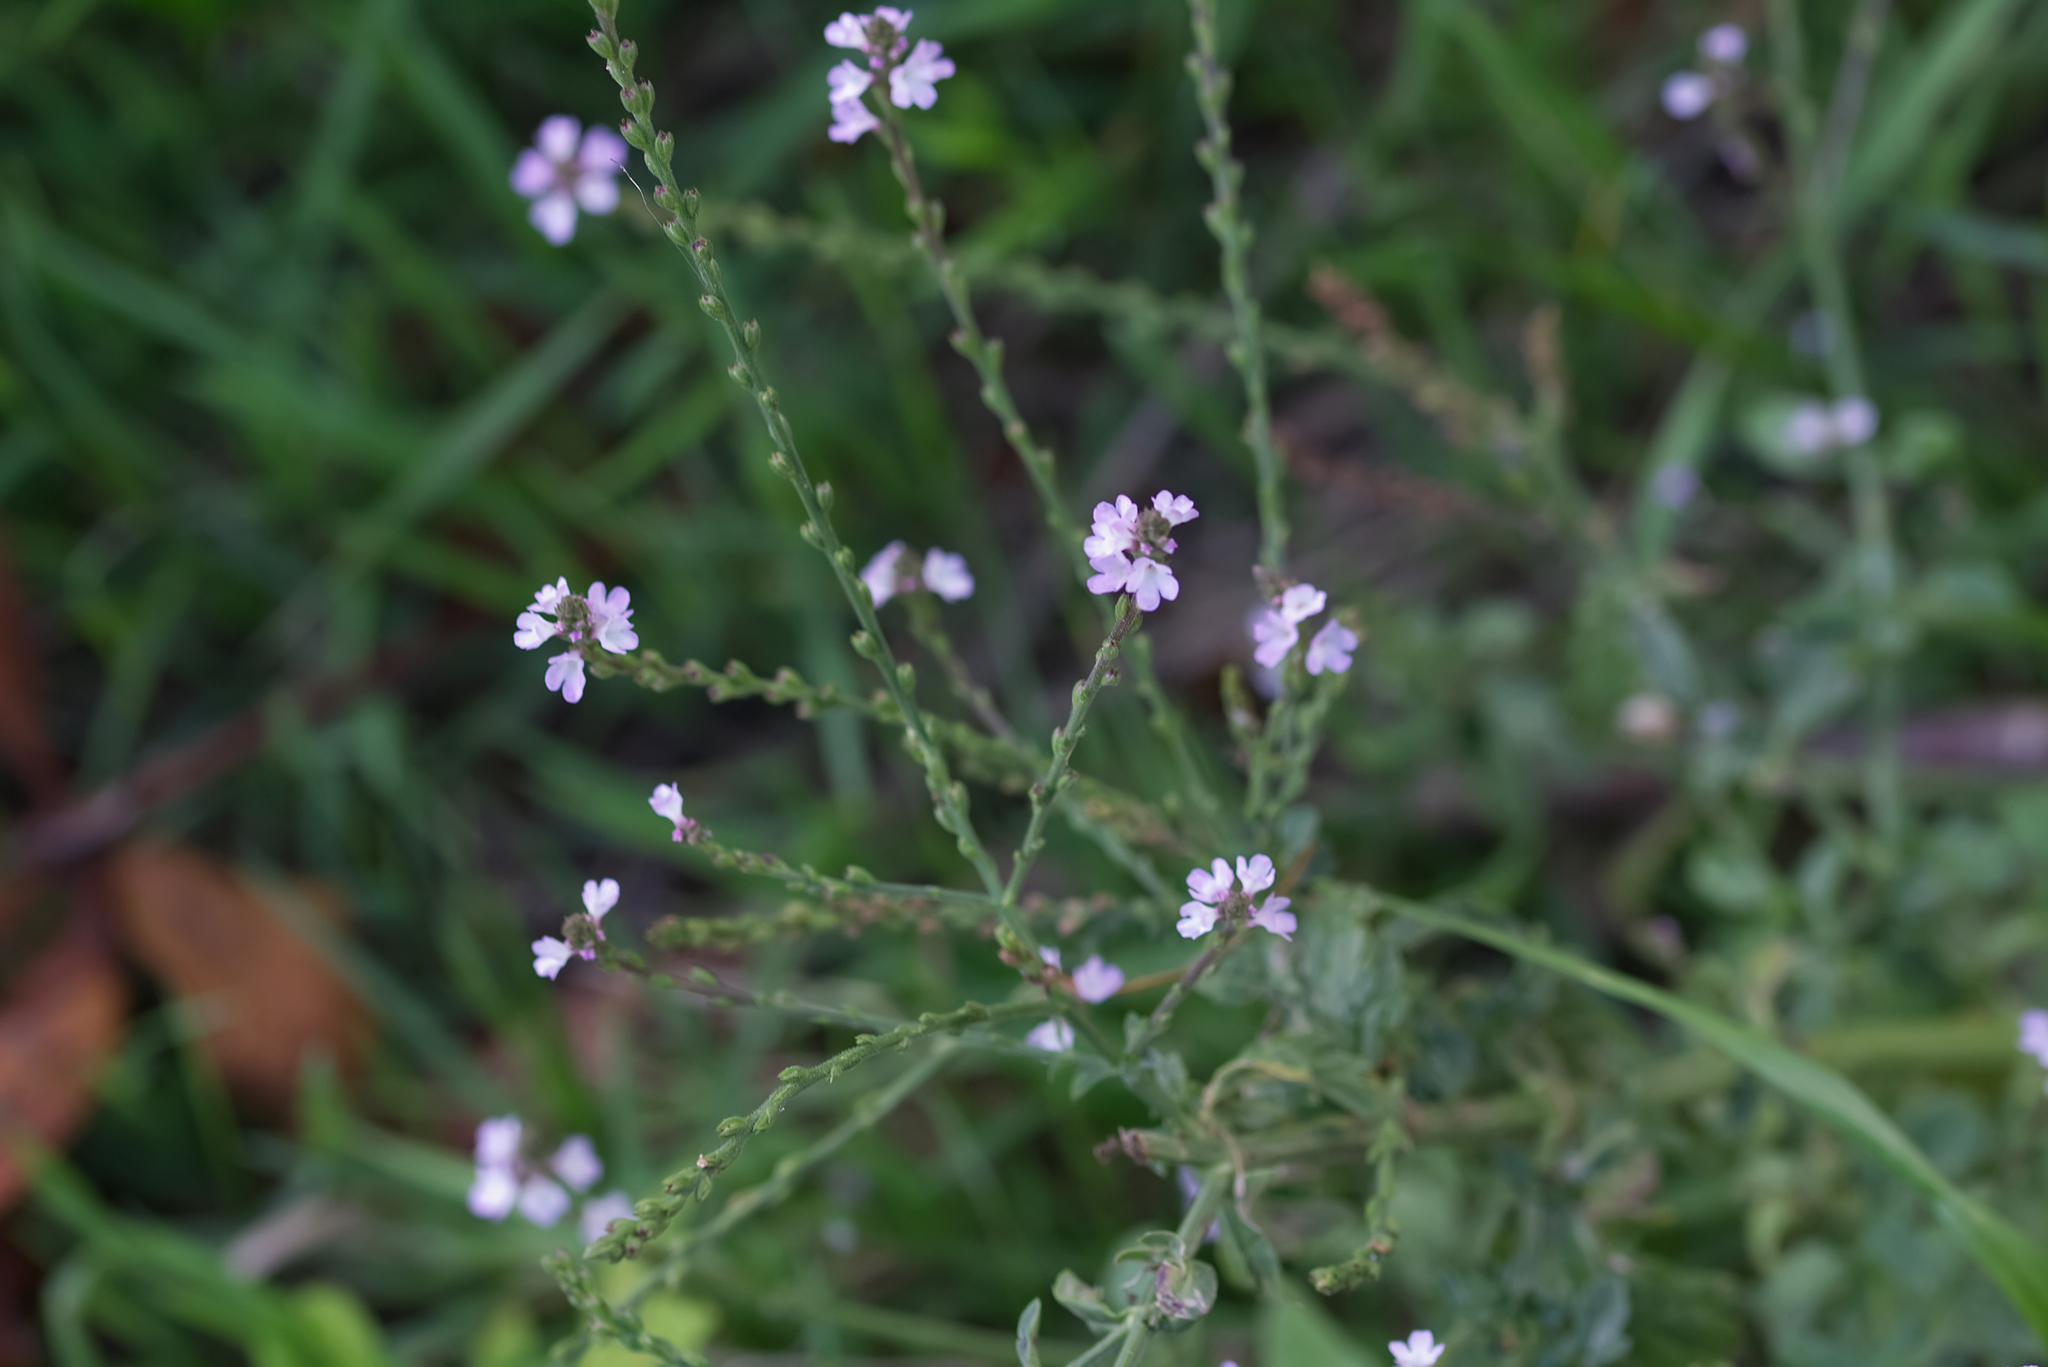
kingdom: Plantae
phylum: Tracheophyta
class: Magnoliopsida
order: Lamiales
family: Verbenaceae
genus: Verbena
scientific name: Verbena officinalis
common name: Vervain
